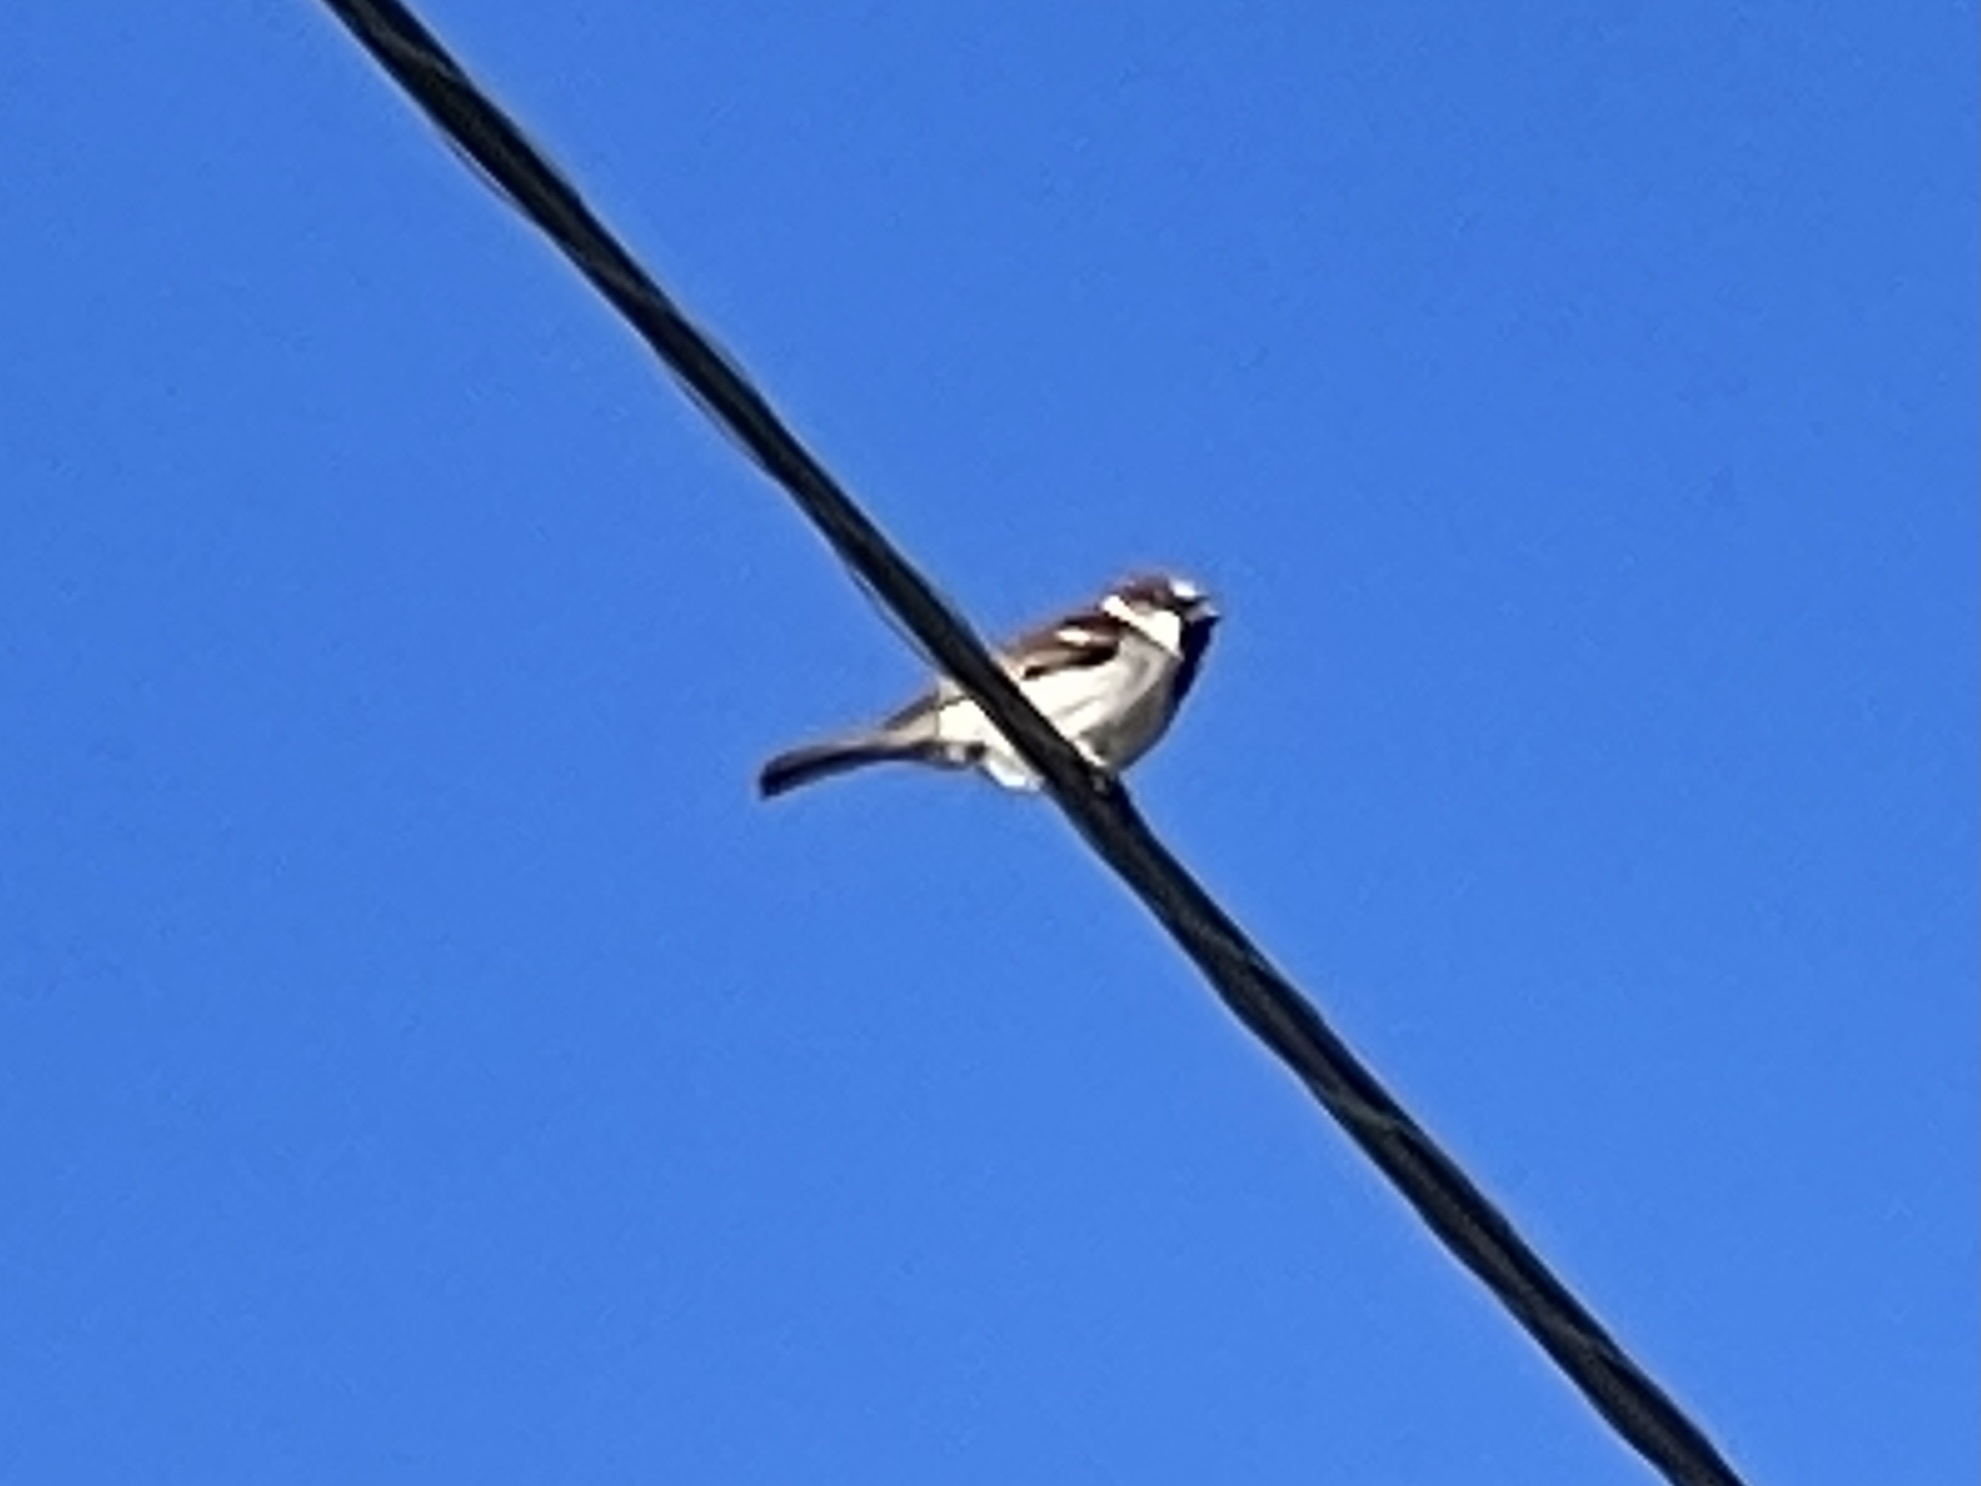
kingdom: Animalia
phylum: Chordata
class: Aves
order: Passeriformes
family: Passeridae
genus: Passer
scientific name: Passer domesticus
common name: House sparrow
